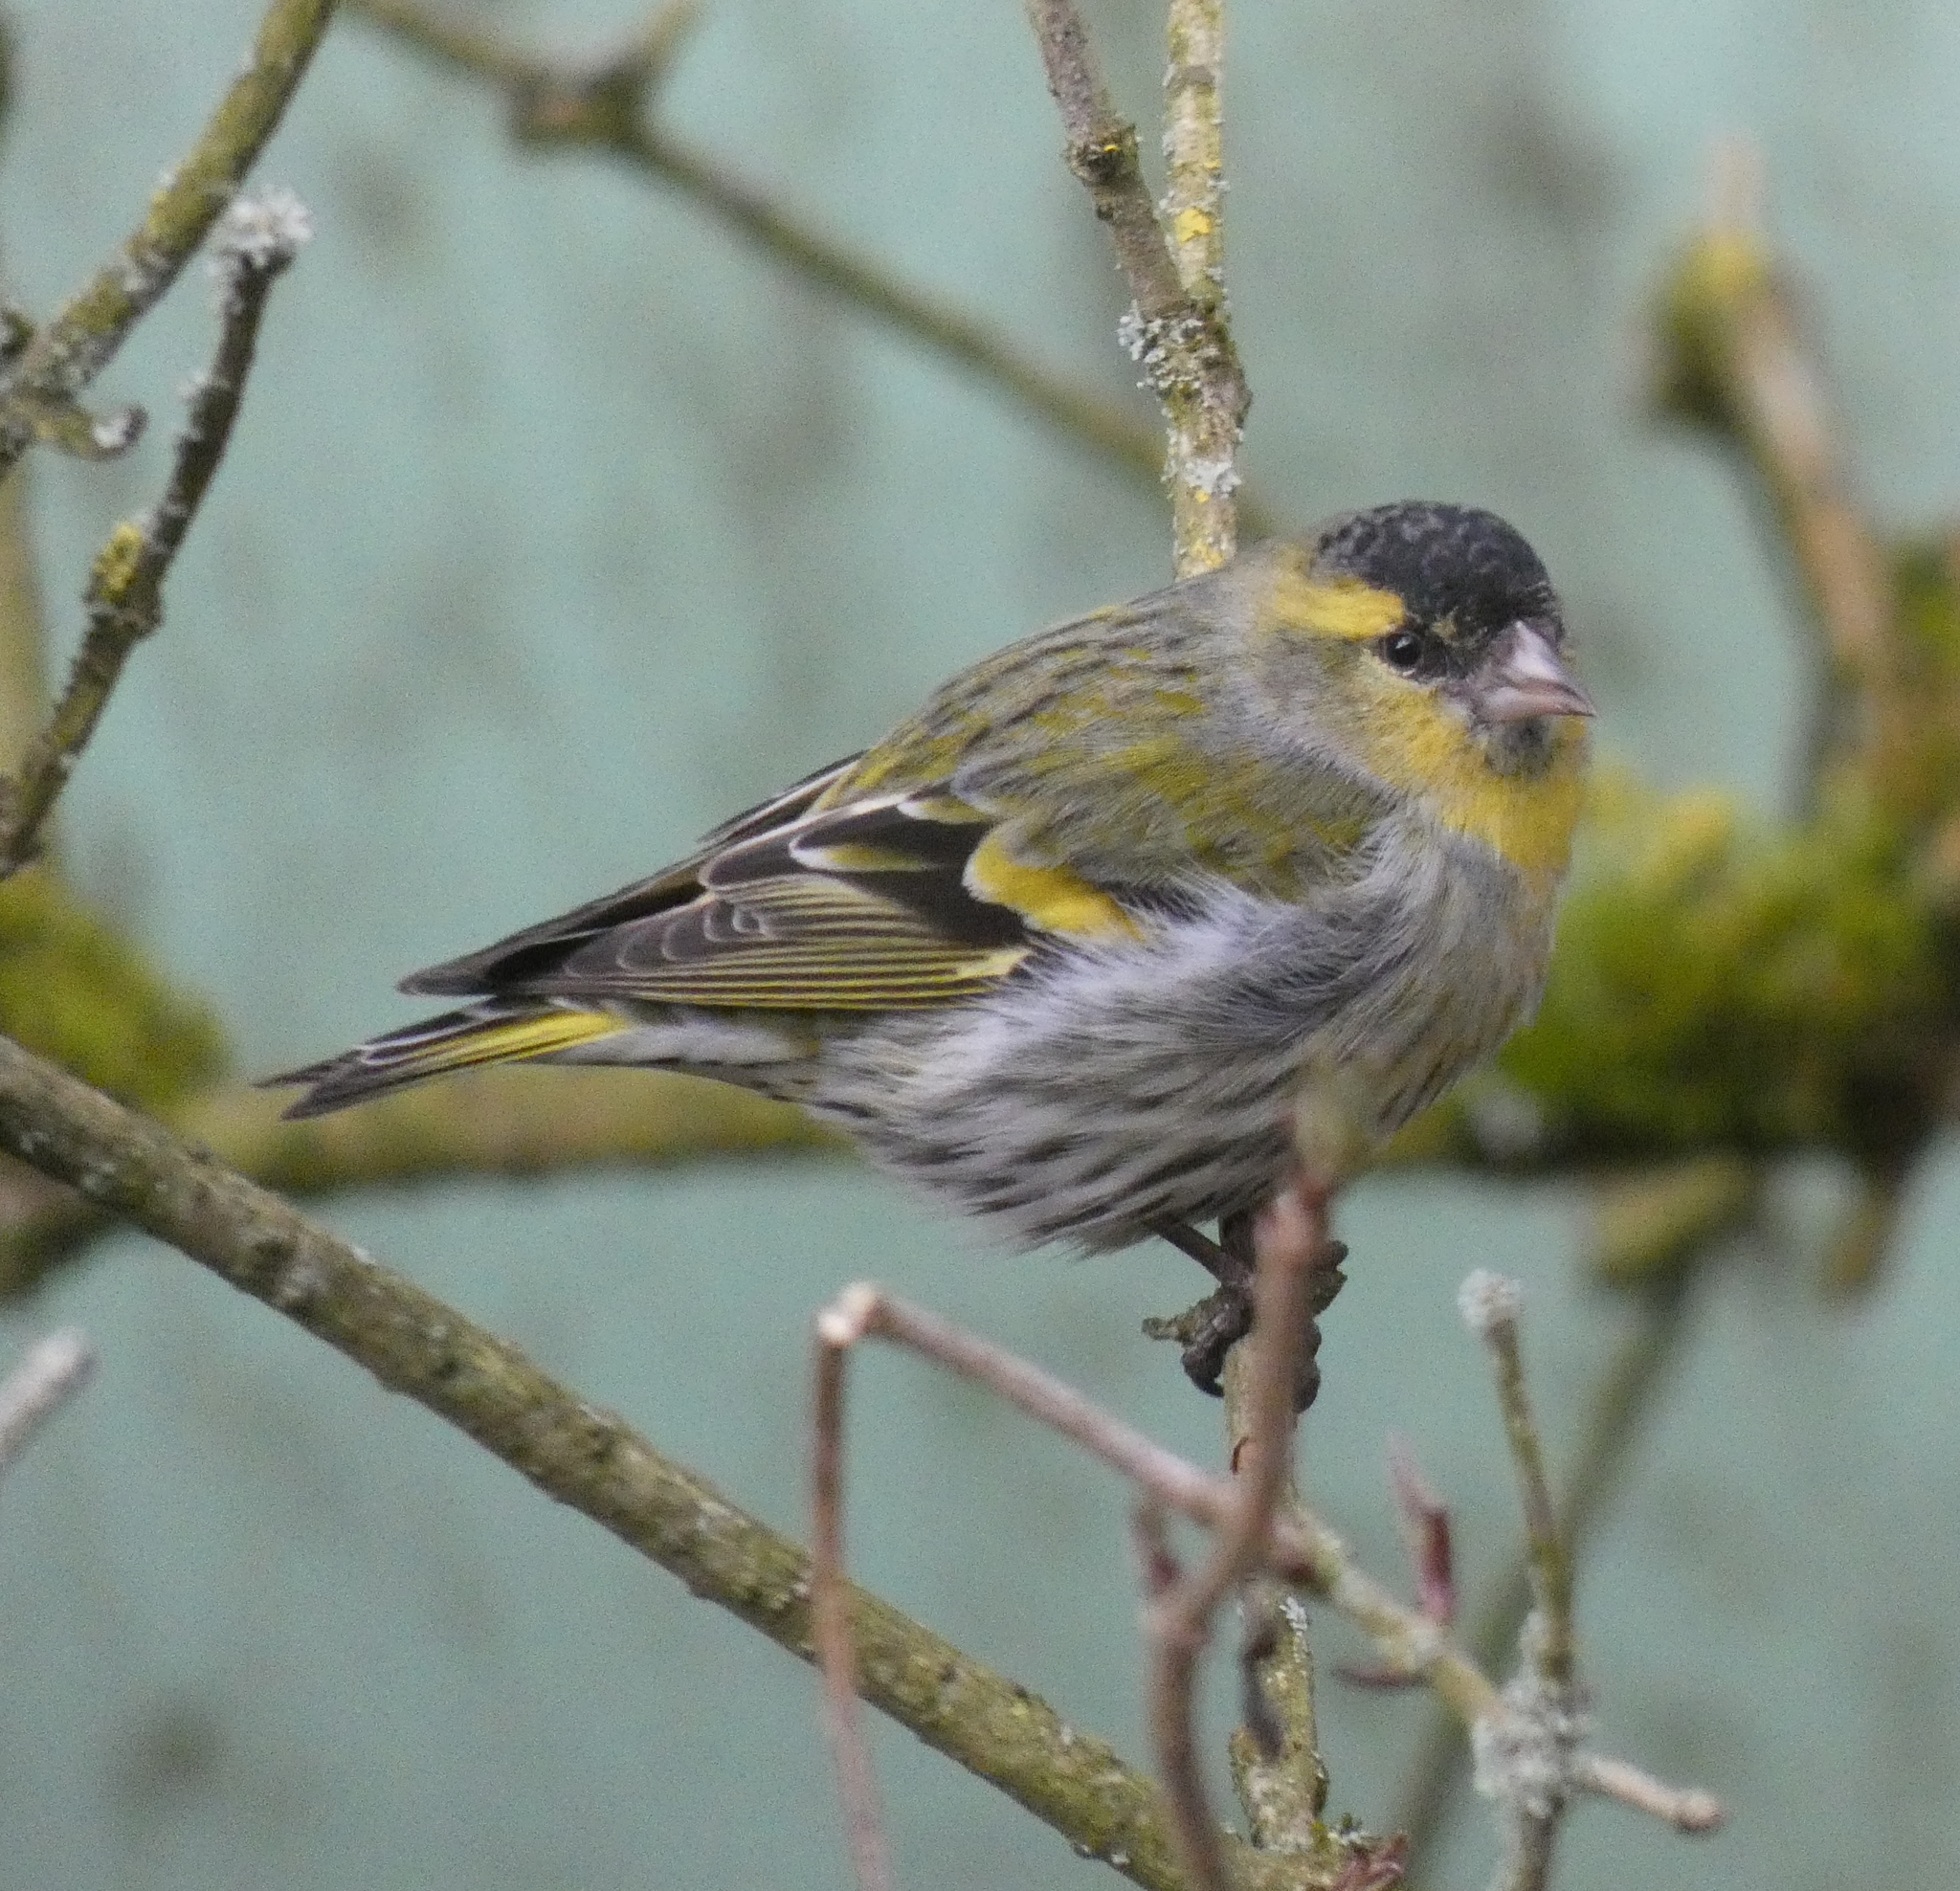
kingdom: Animalia
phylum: Chordata
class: Aves
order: Passeriformes
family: Fringillidae
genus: Spinus
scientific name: Spinus spinus
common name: Eurasian siskin
